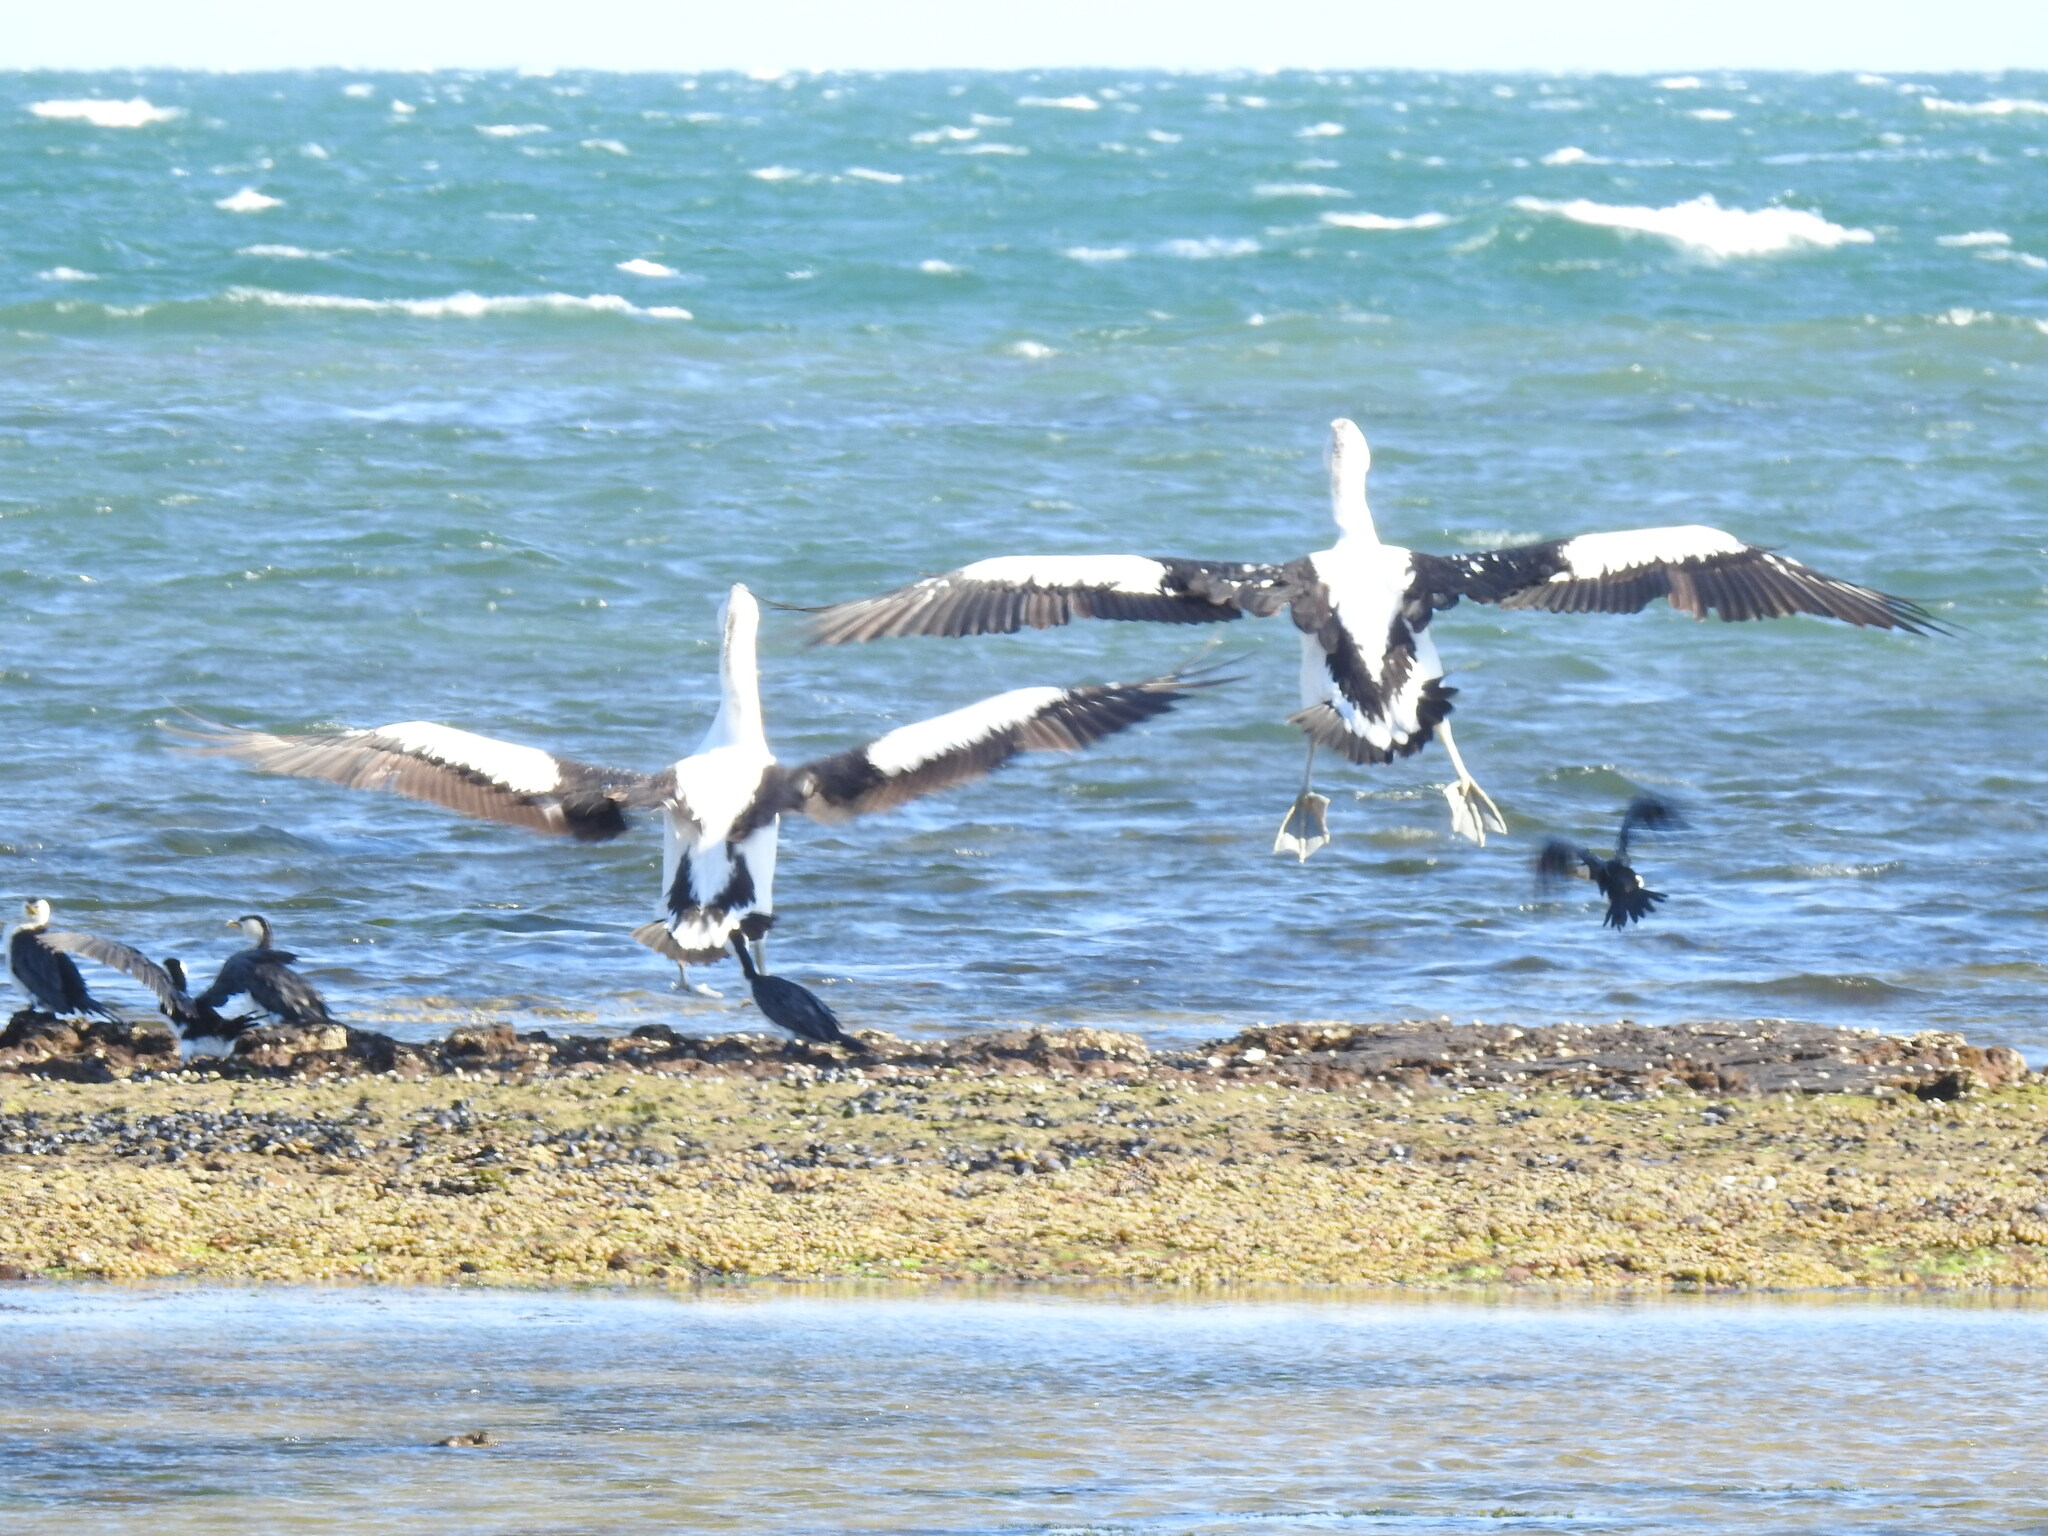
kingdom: Animalia
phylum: Chordata
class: Aves
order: Pelecaniformes
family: Pelecanidae
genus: Pelecanus
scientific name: Pelecanus conspicillatus
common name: Australian pelican
